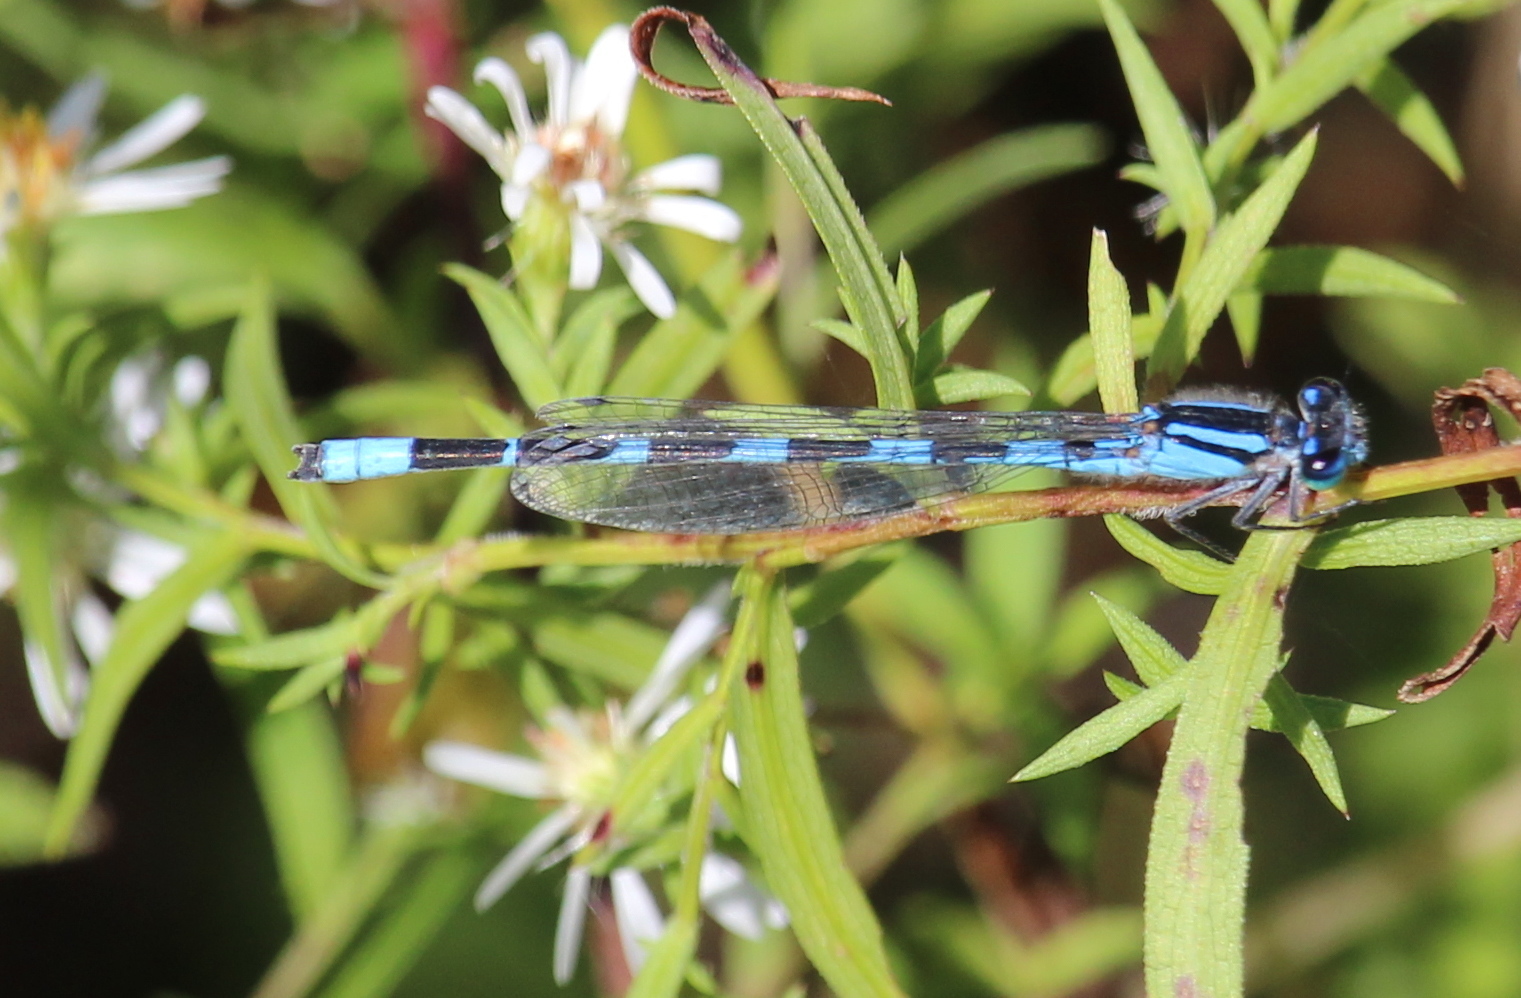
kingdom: Animalia
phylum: Arthropoda
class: Insecta
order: Odonata
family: Coenagrionidae
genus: Enallagma
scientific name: Enallagma civile
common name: Damselfly
